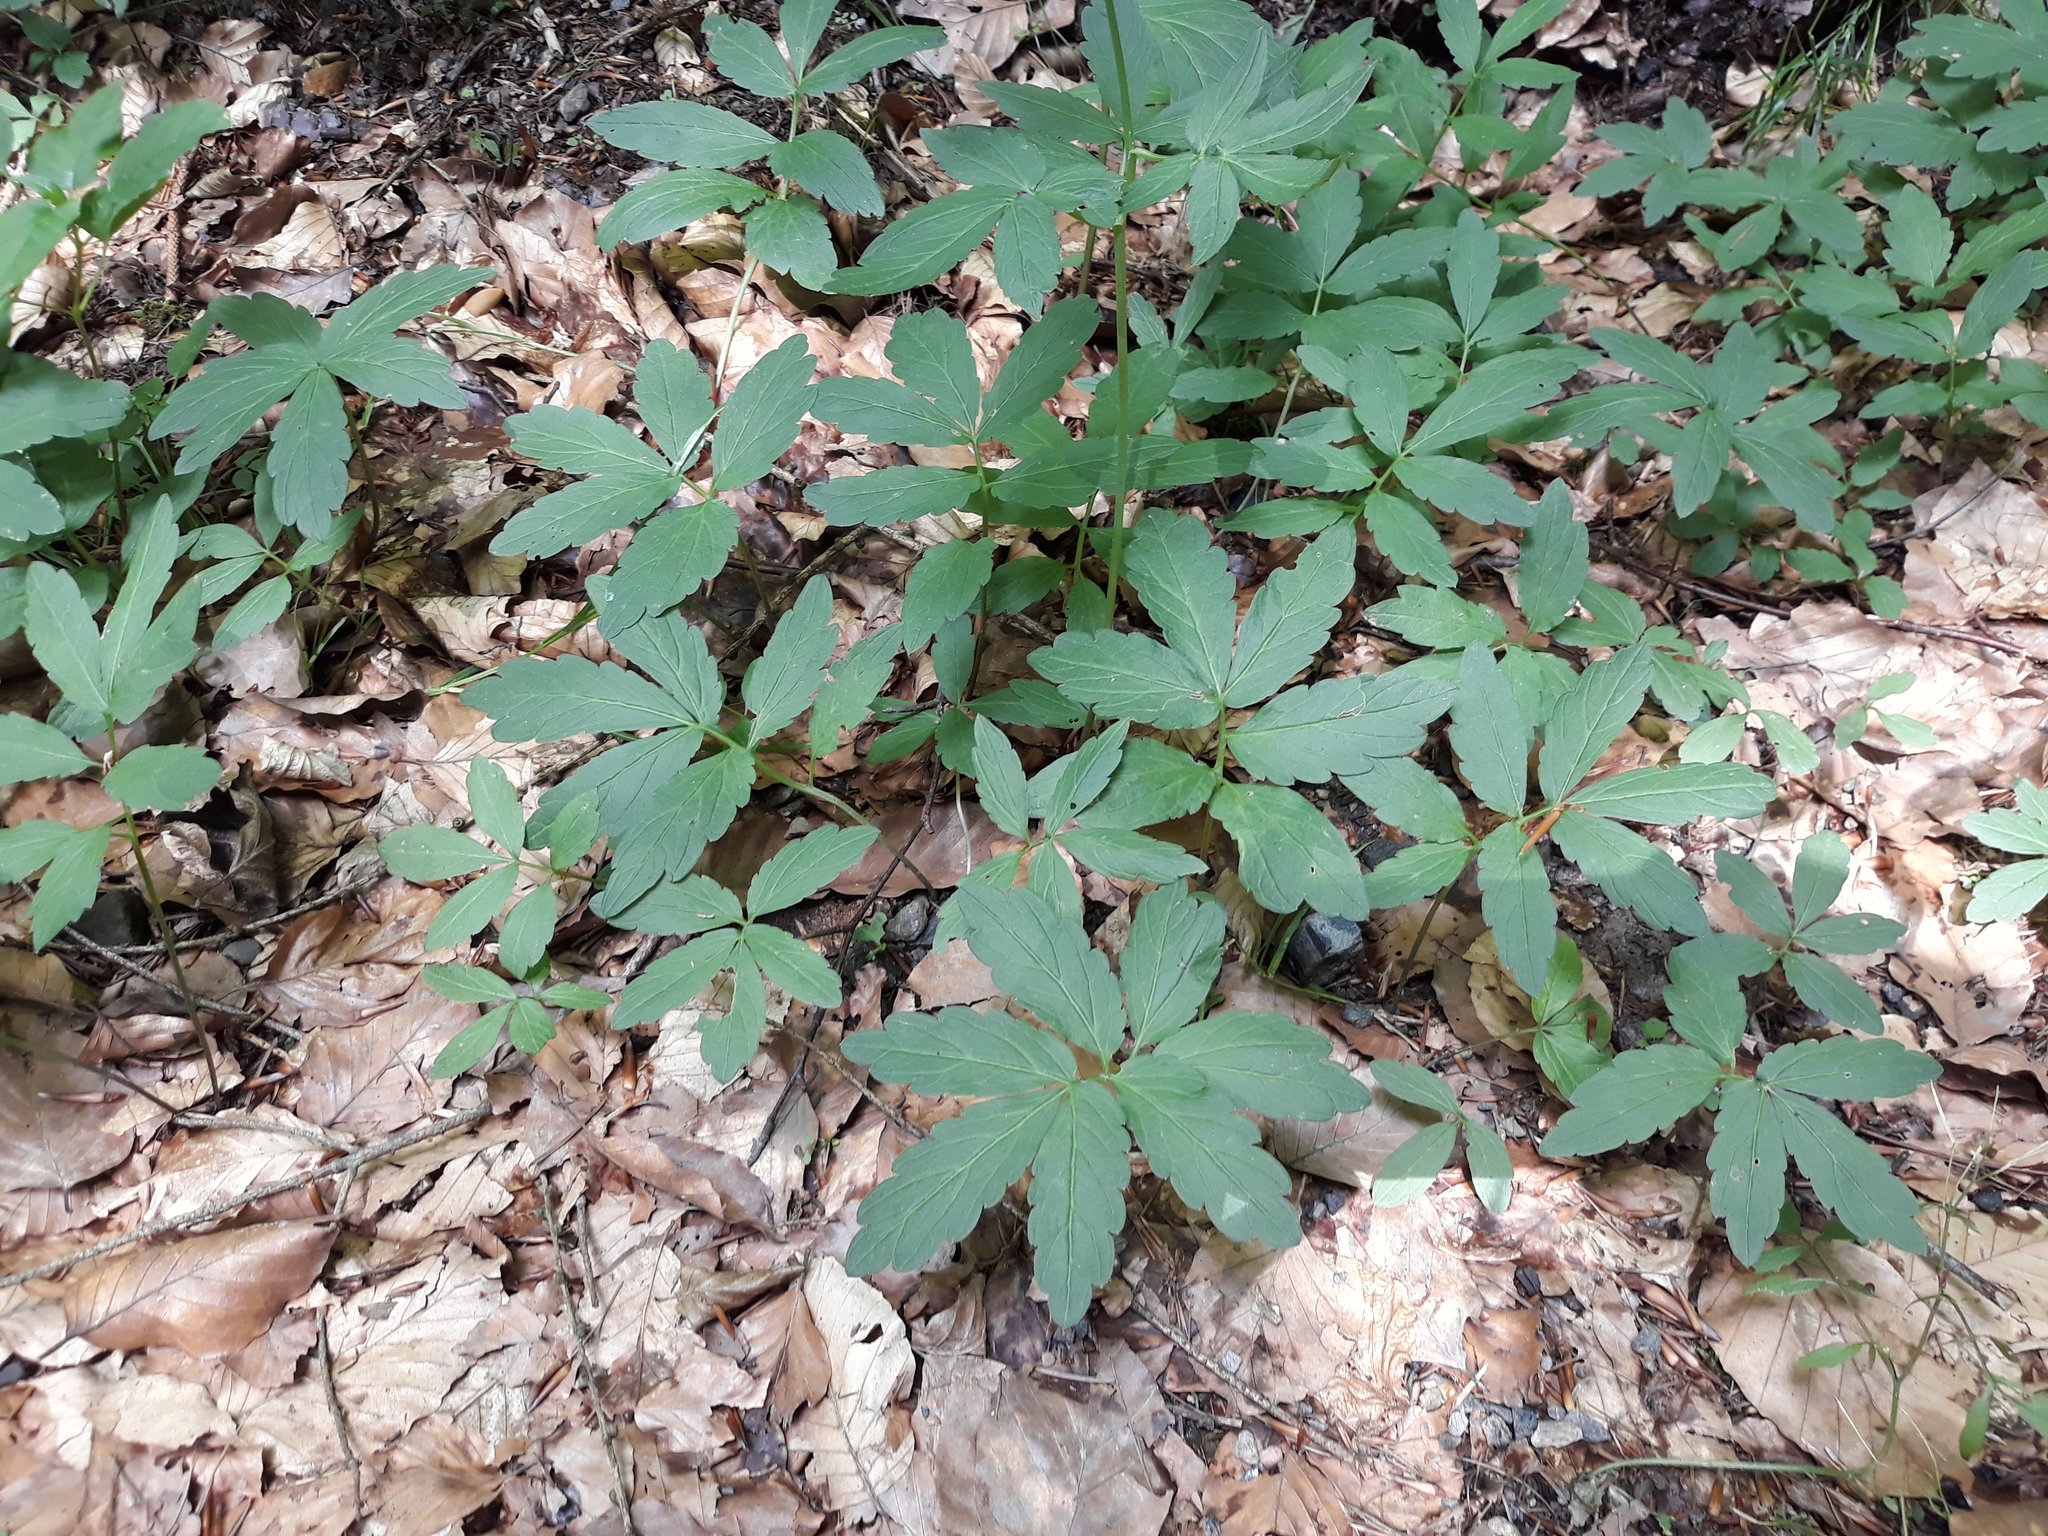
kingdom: Plantae
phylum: Tracheophyta
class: Magnoliopsida
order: Brassicales
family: Brassicaceae
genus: Cardamine
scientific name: Cardamine bulbifera
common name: Coralroot bittercress
